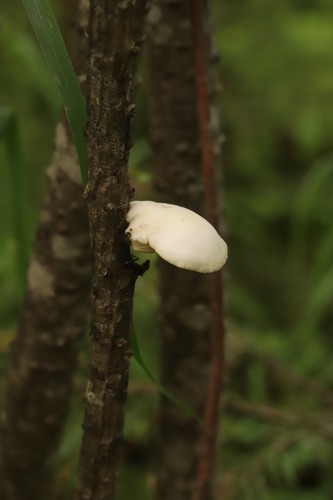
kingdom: Fungi
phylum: Basidiomycota
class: Agaricomycetes
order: Agaricales
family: Pleurotaceae
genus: Pleurotus
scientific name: Pleurotus pulmonarius
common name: Pale oyster
